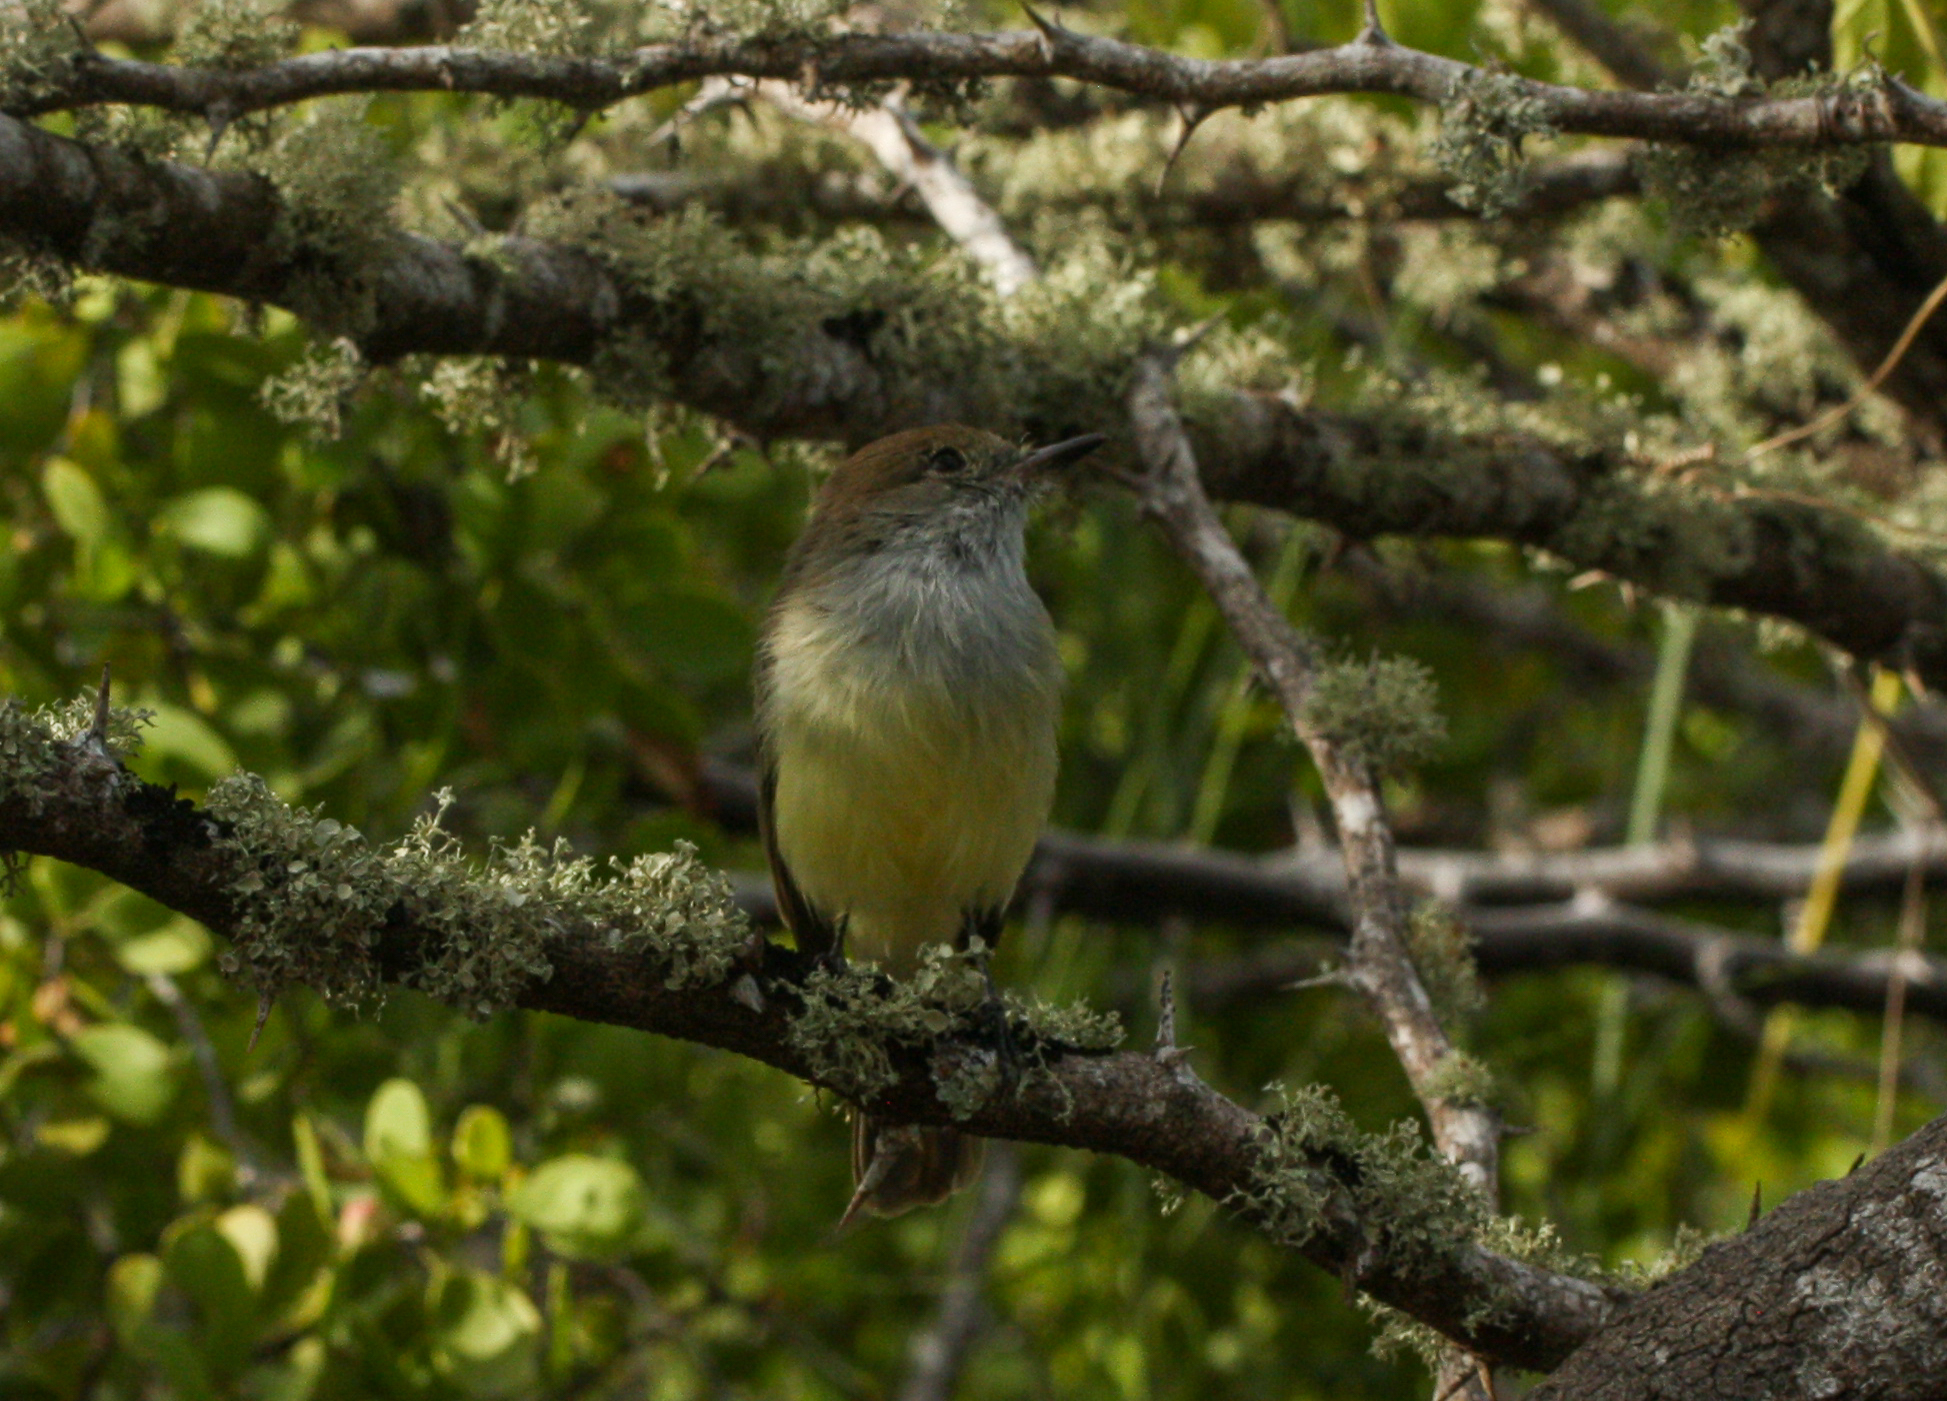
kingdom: Animalia
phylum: Chordata
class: Aves
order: Passeriformes
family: Tyrannidae
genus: Myiarchus
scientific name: Myiarchus magnirostris
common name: Galapagos flycatcher
